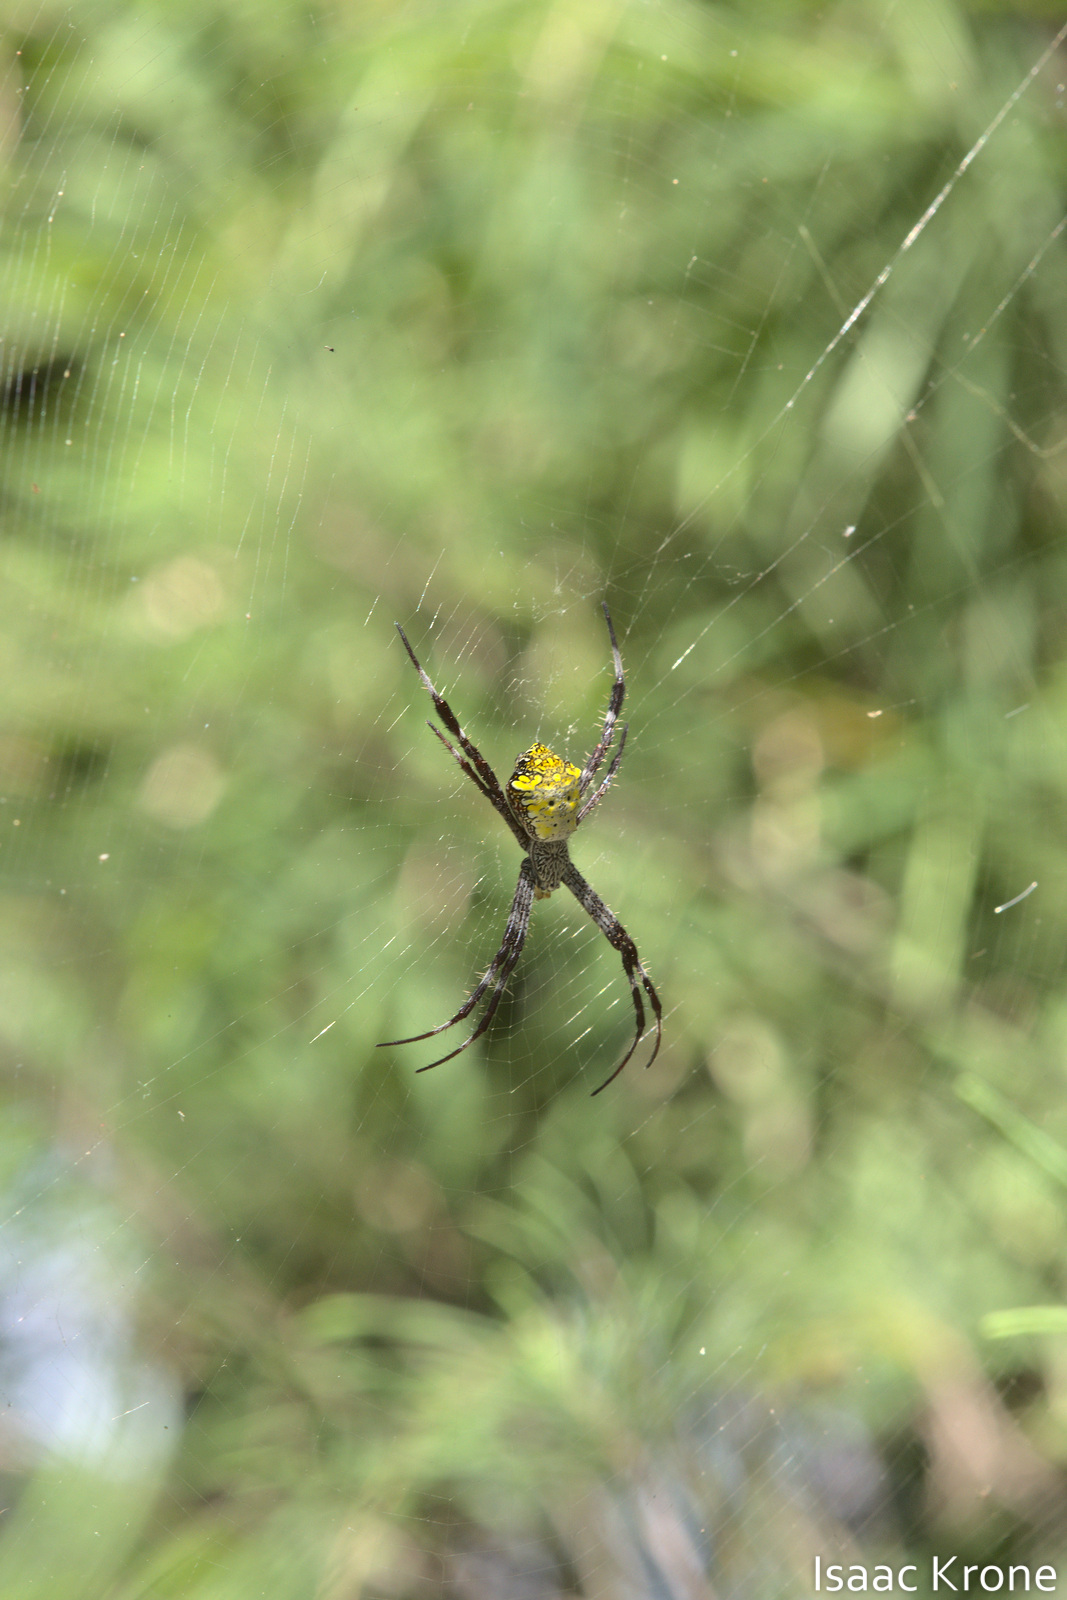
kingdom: Animalia
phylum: Arthropoda
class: Arachnida
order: Araneae
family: Araneidae
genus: Argiope
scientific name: Argiope appensa
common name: Garden spider
